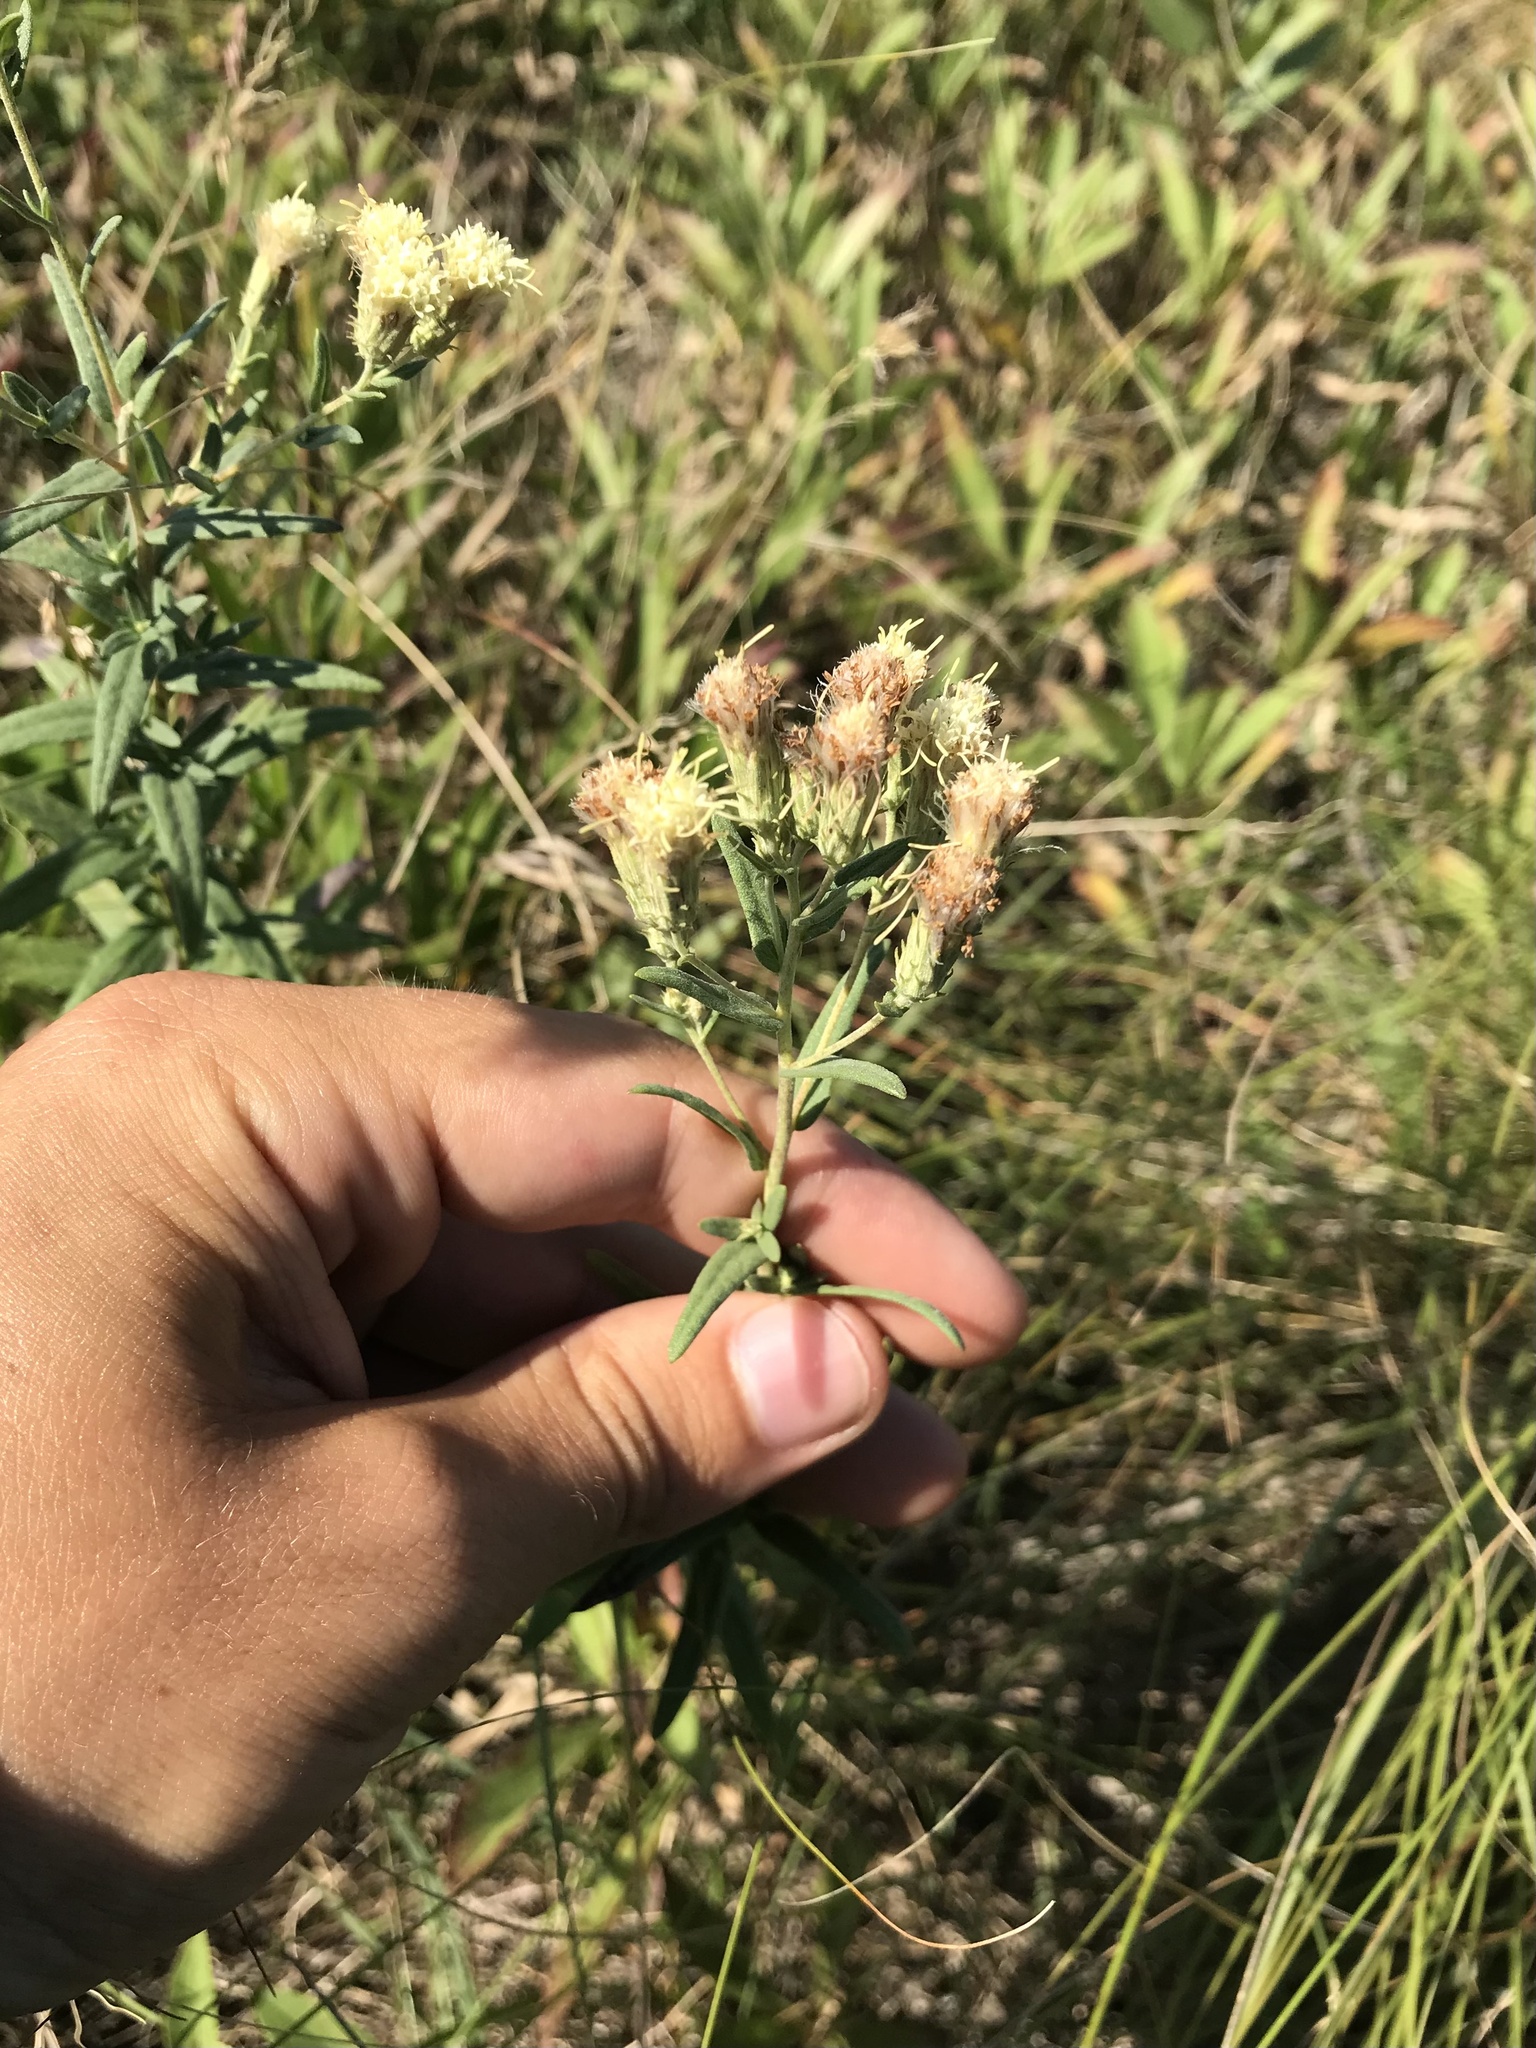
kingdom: Plantae
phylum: Tracheophyta
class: Magnoliopsida
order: Asterales
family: Asteraceae
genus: Brickellia
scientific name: Brickellia eupatorioides
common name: False boneset
